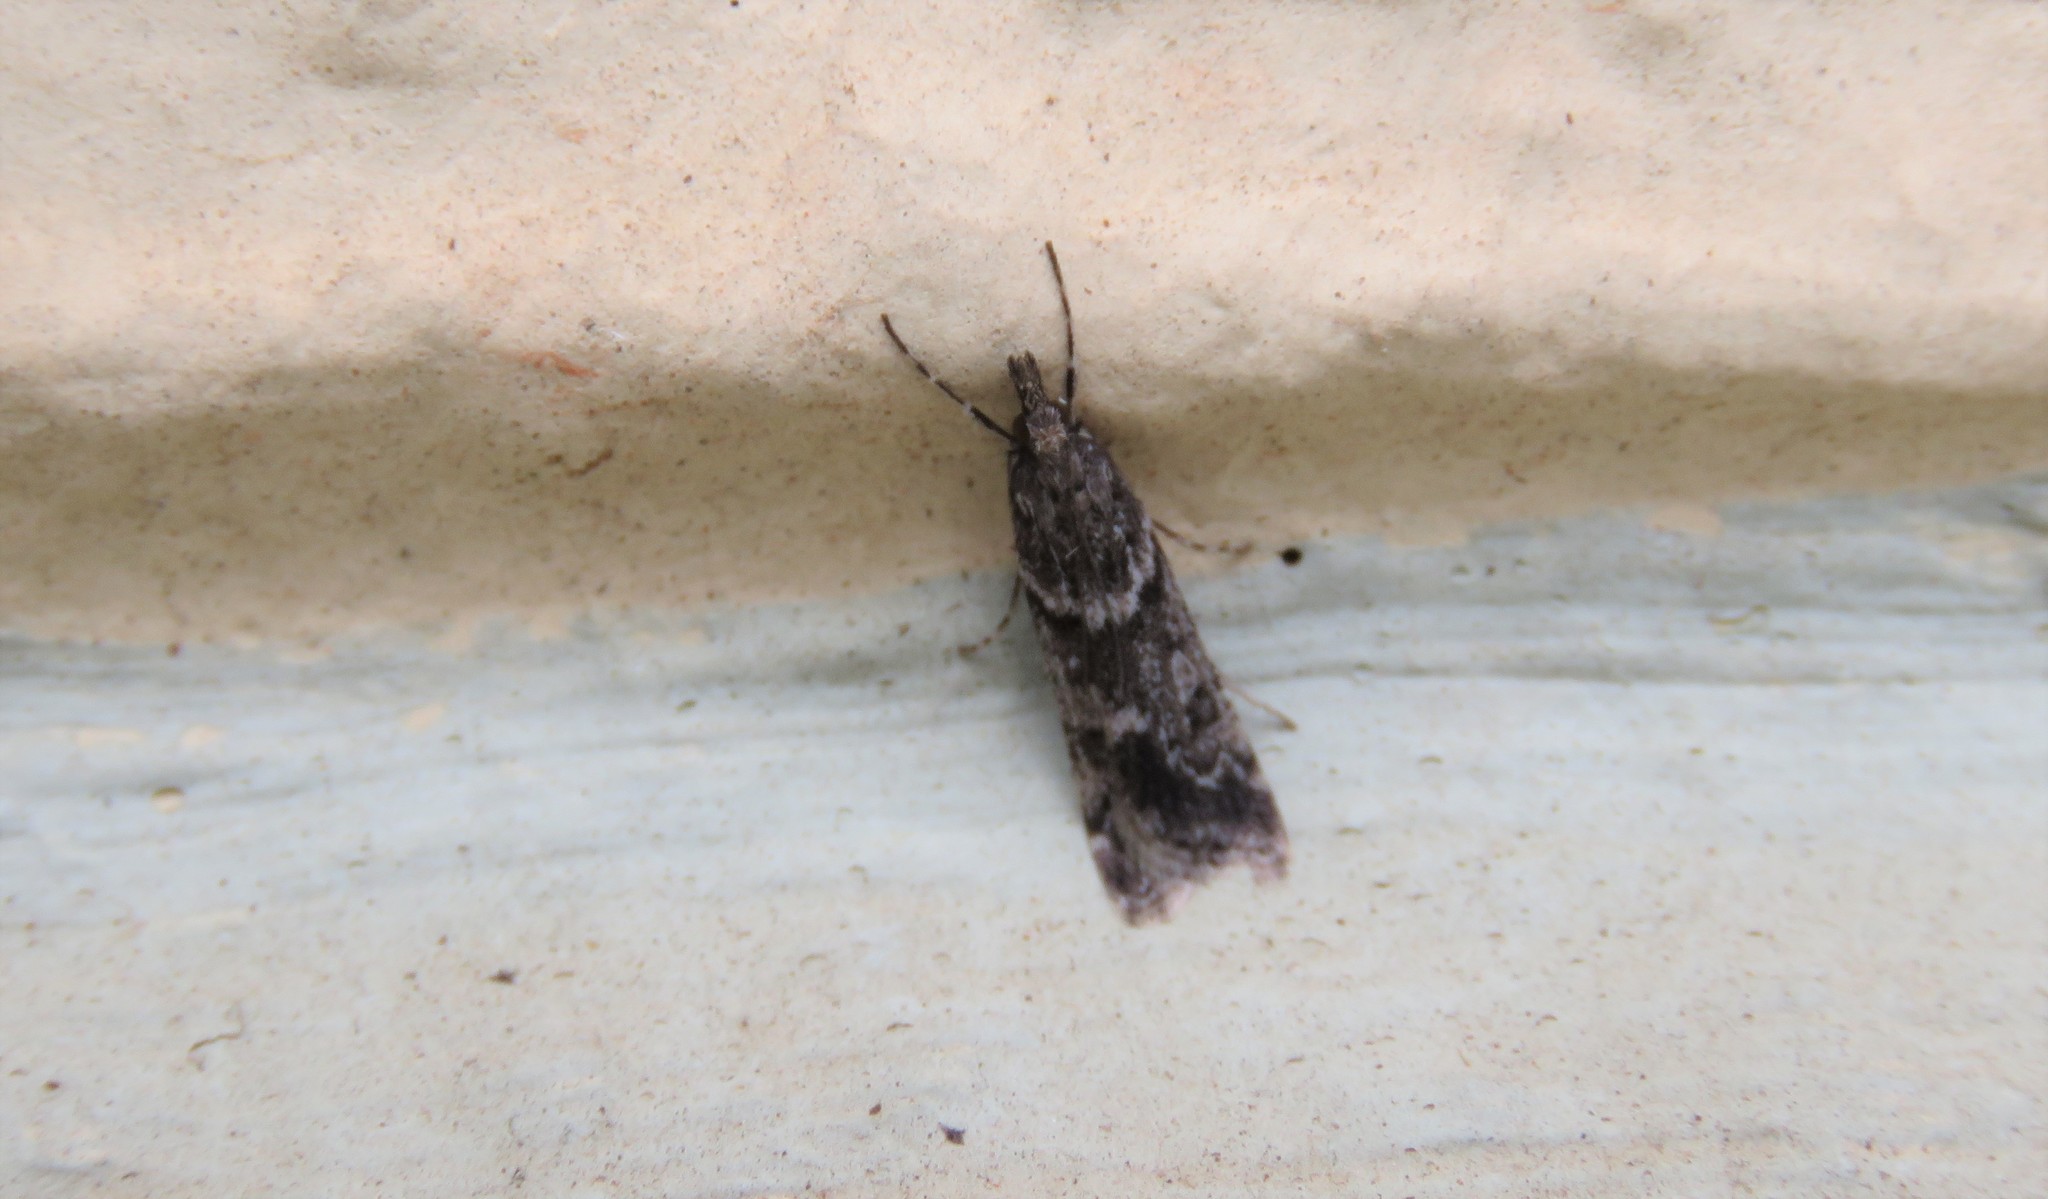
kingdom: Animalia
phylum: Arthropoda
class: Insecta
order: Lepidoptera
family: Crambidae
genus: Eudonia
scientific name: Eudonia angustea
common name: Narrow-winged grey
